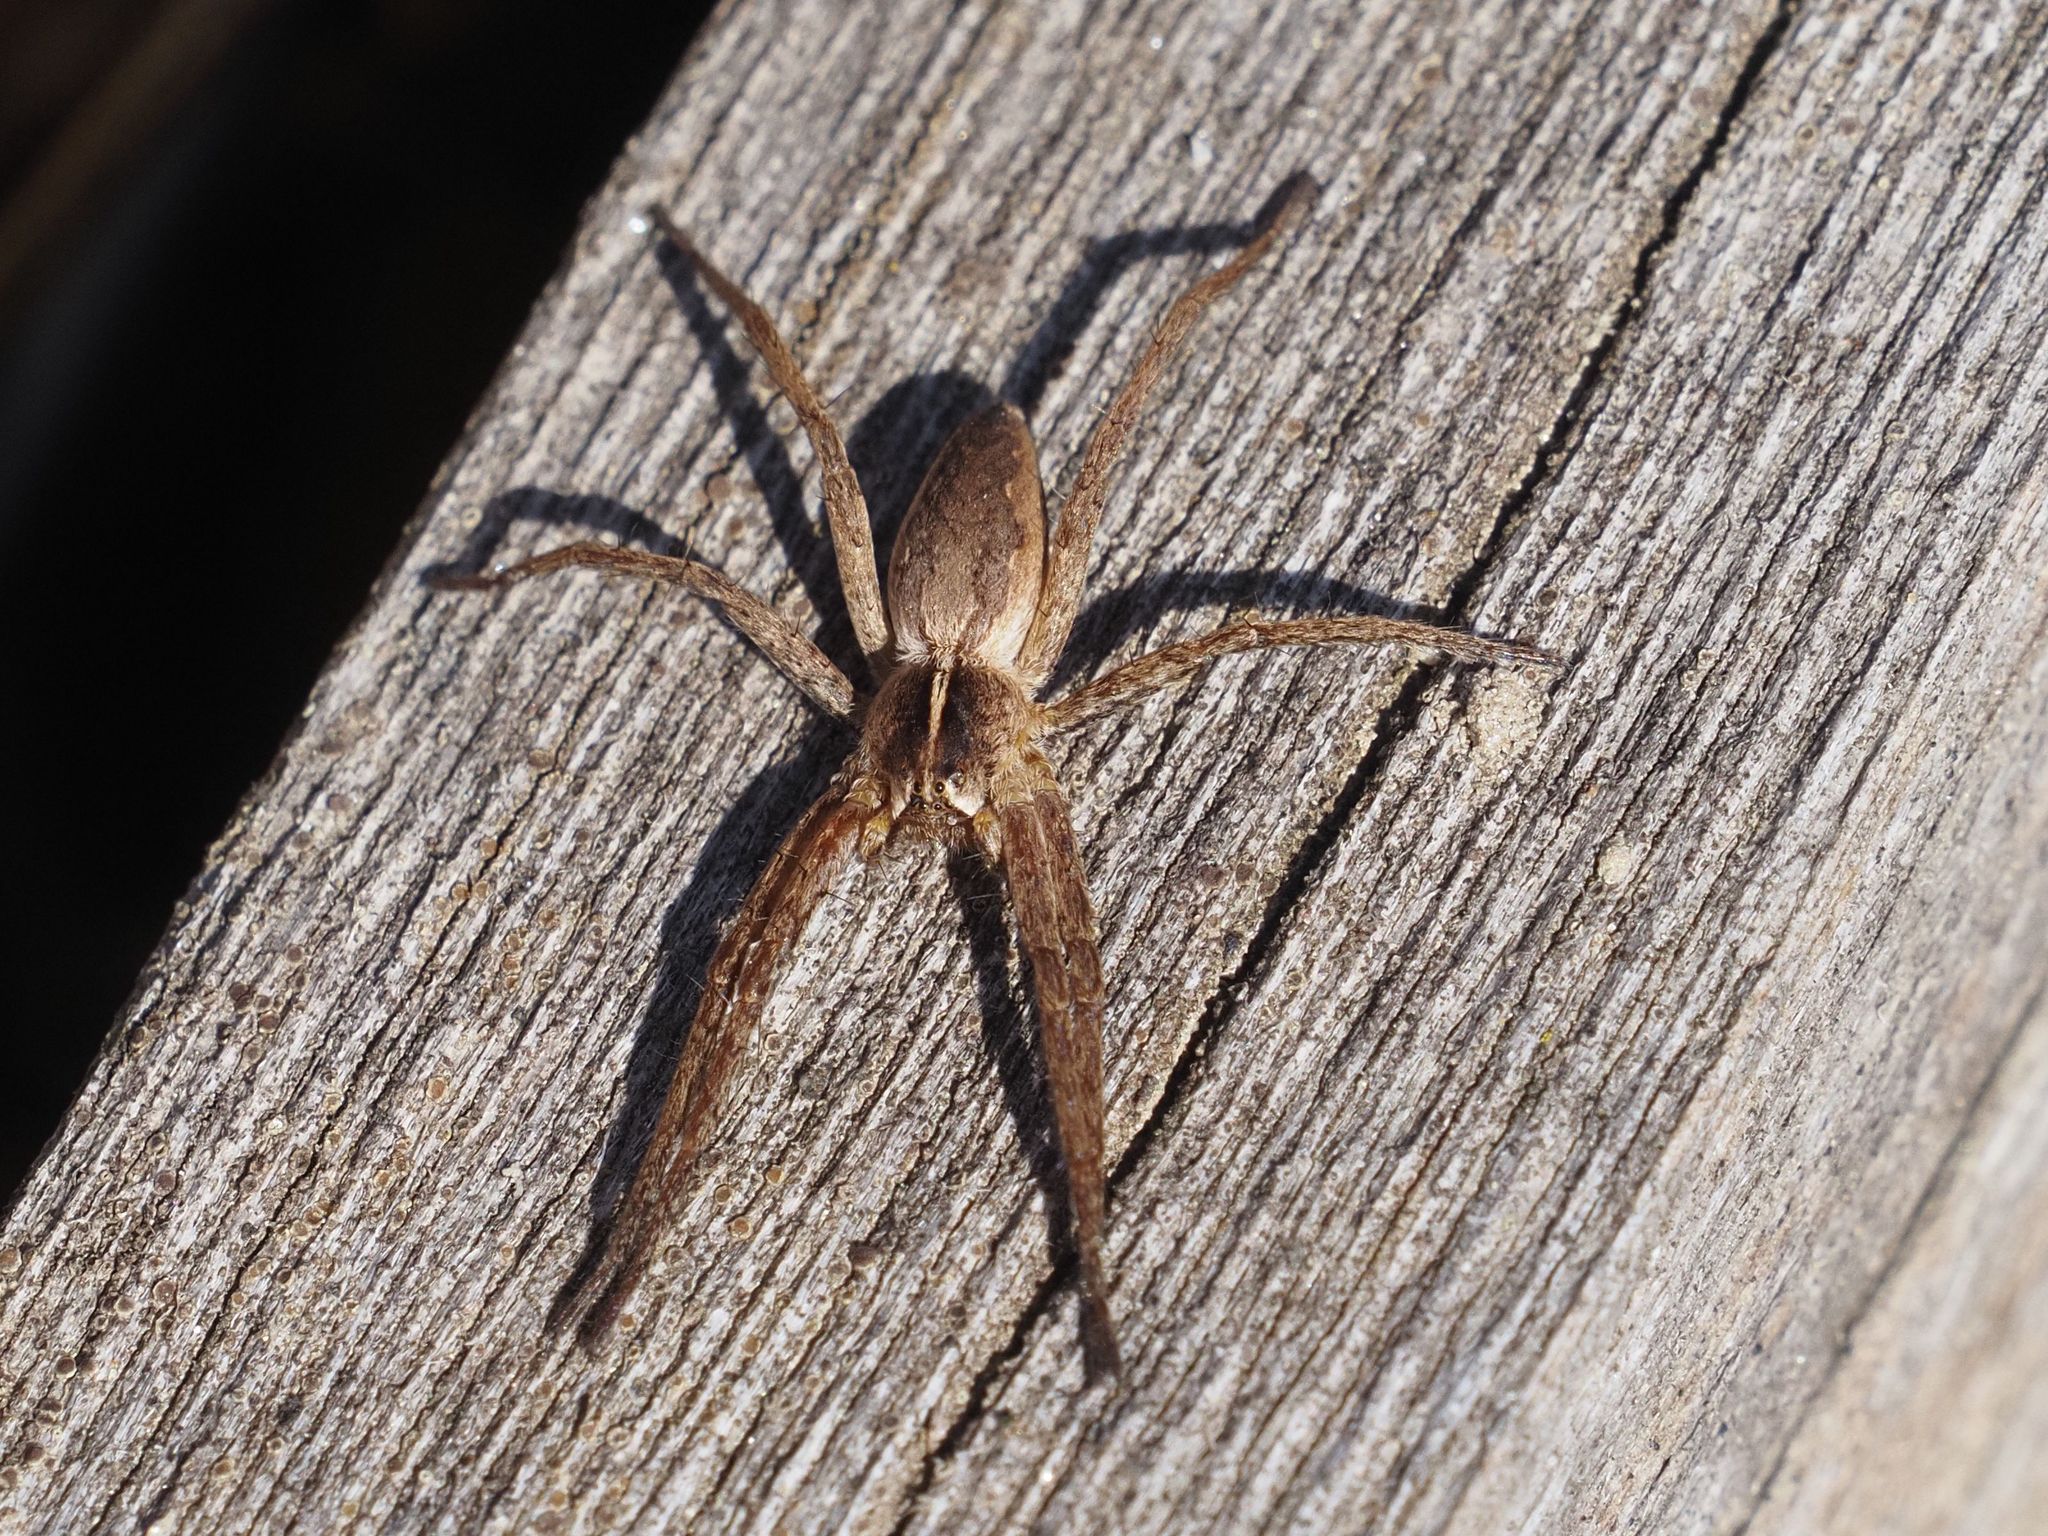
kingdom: Animalia
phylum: Arthropoda
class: Arachnida
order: Araneae
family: Pisauridae
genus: Pisaura
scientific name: Pisaura mirabilis
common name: Tent spider
